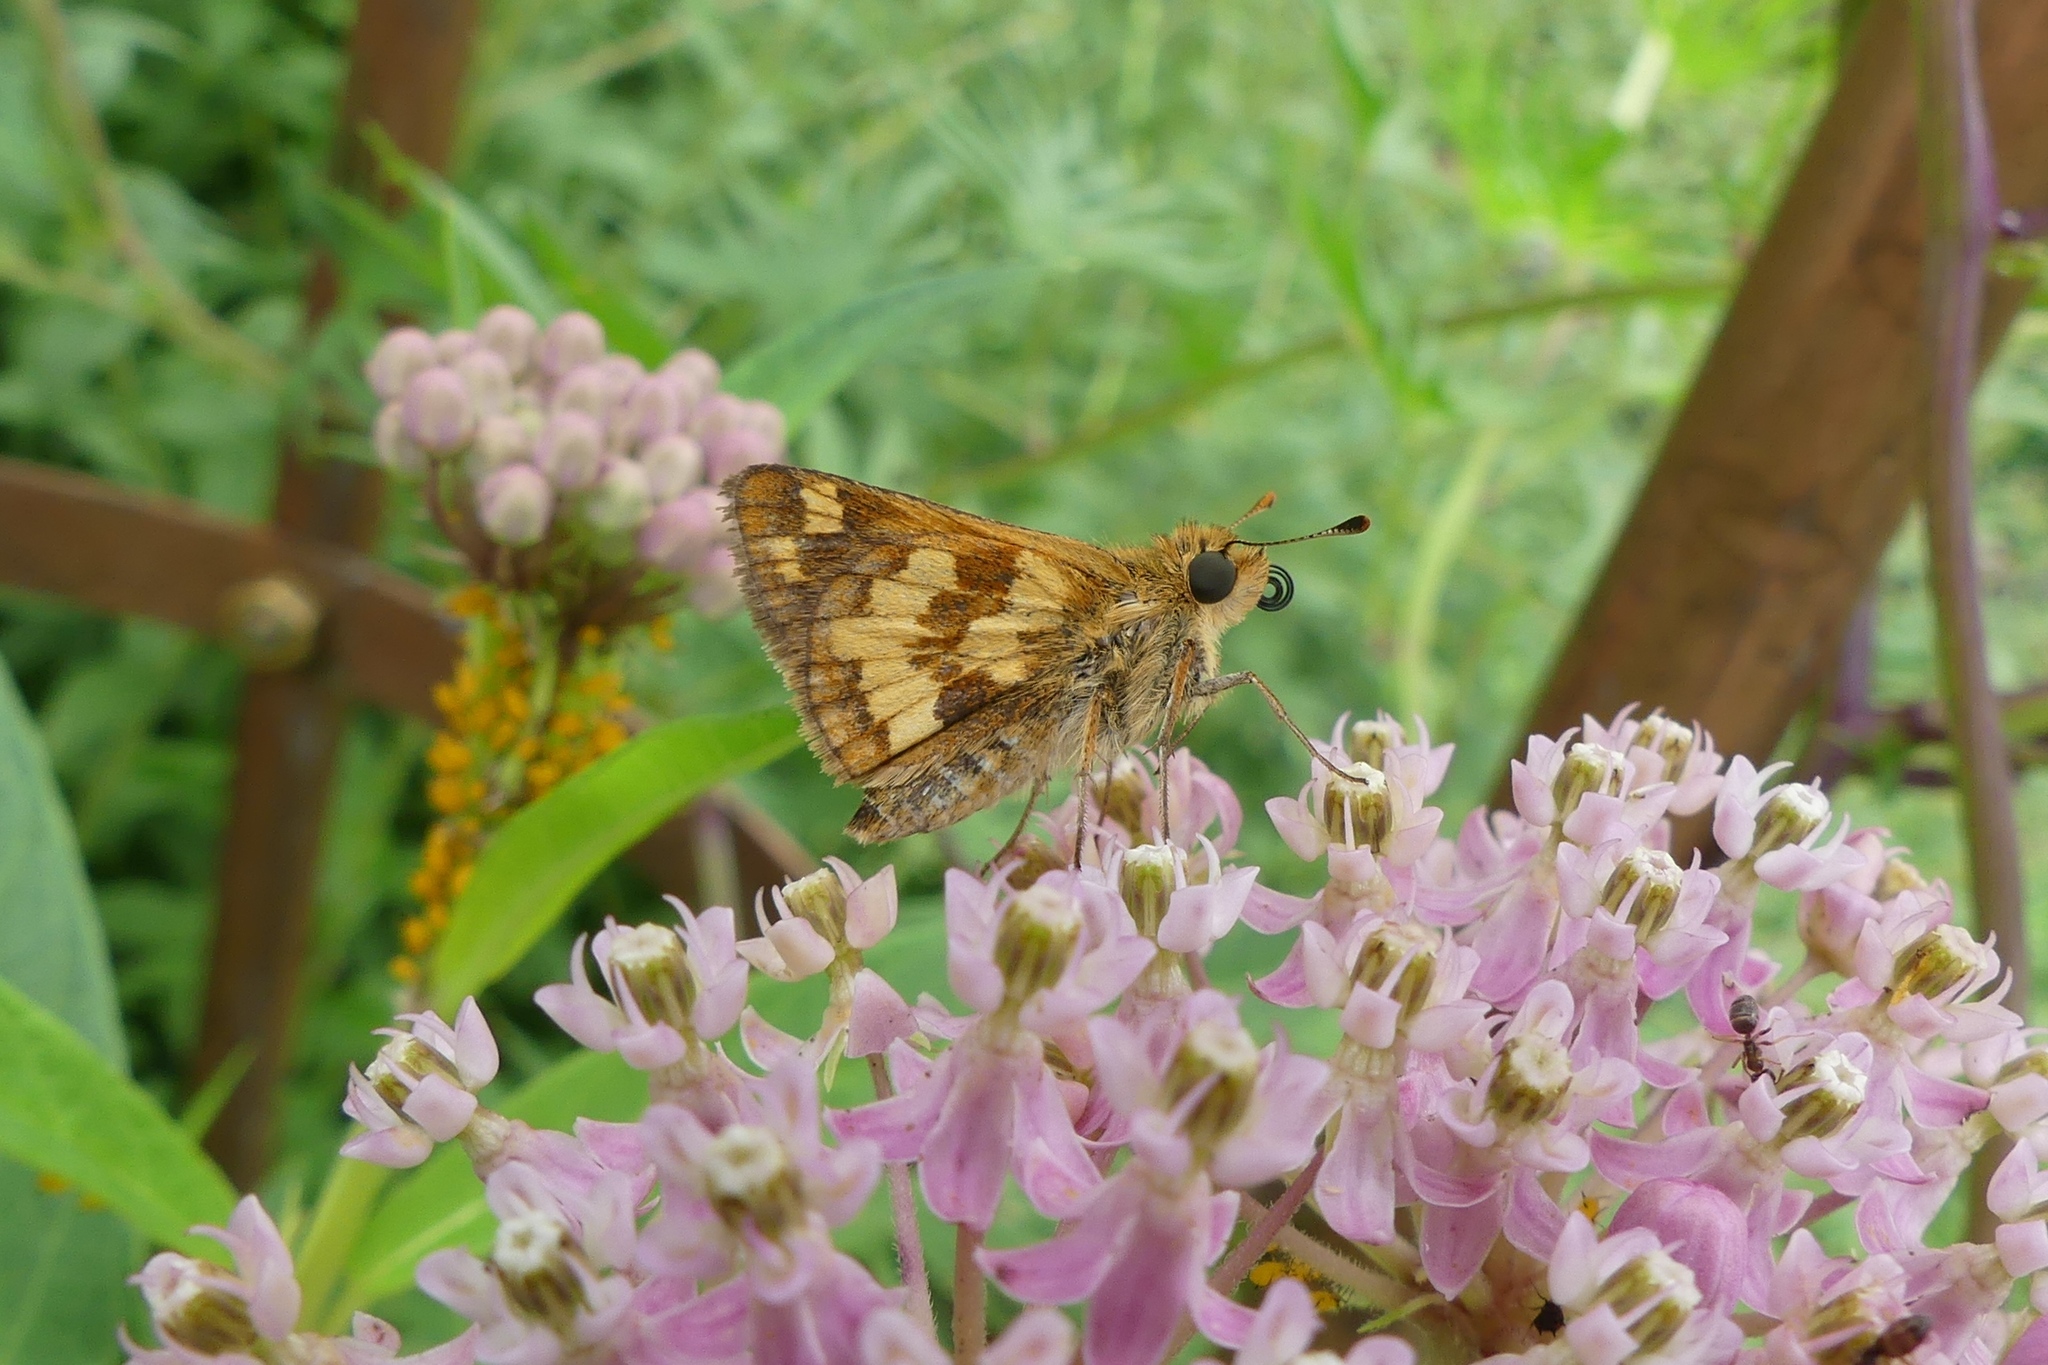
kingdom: Animalia
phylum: Arthropoda
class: Insecta
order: Lepidoptera
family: Hesperiidae
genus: Polites
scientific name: Polites coras
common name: Peck's skipper
